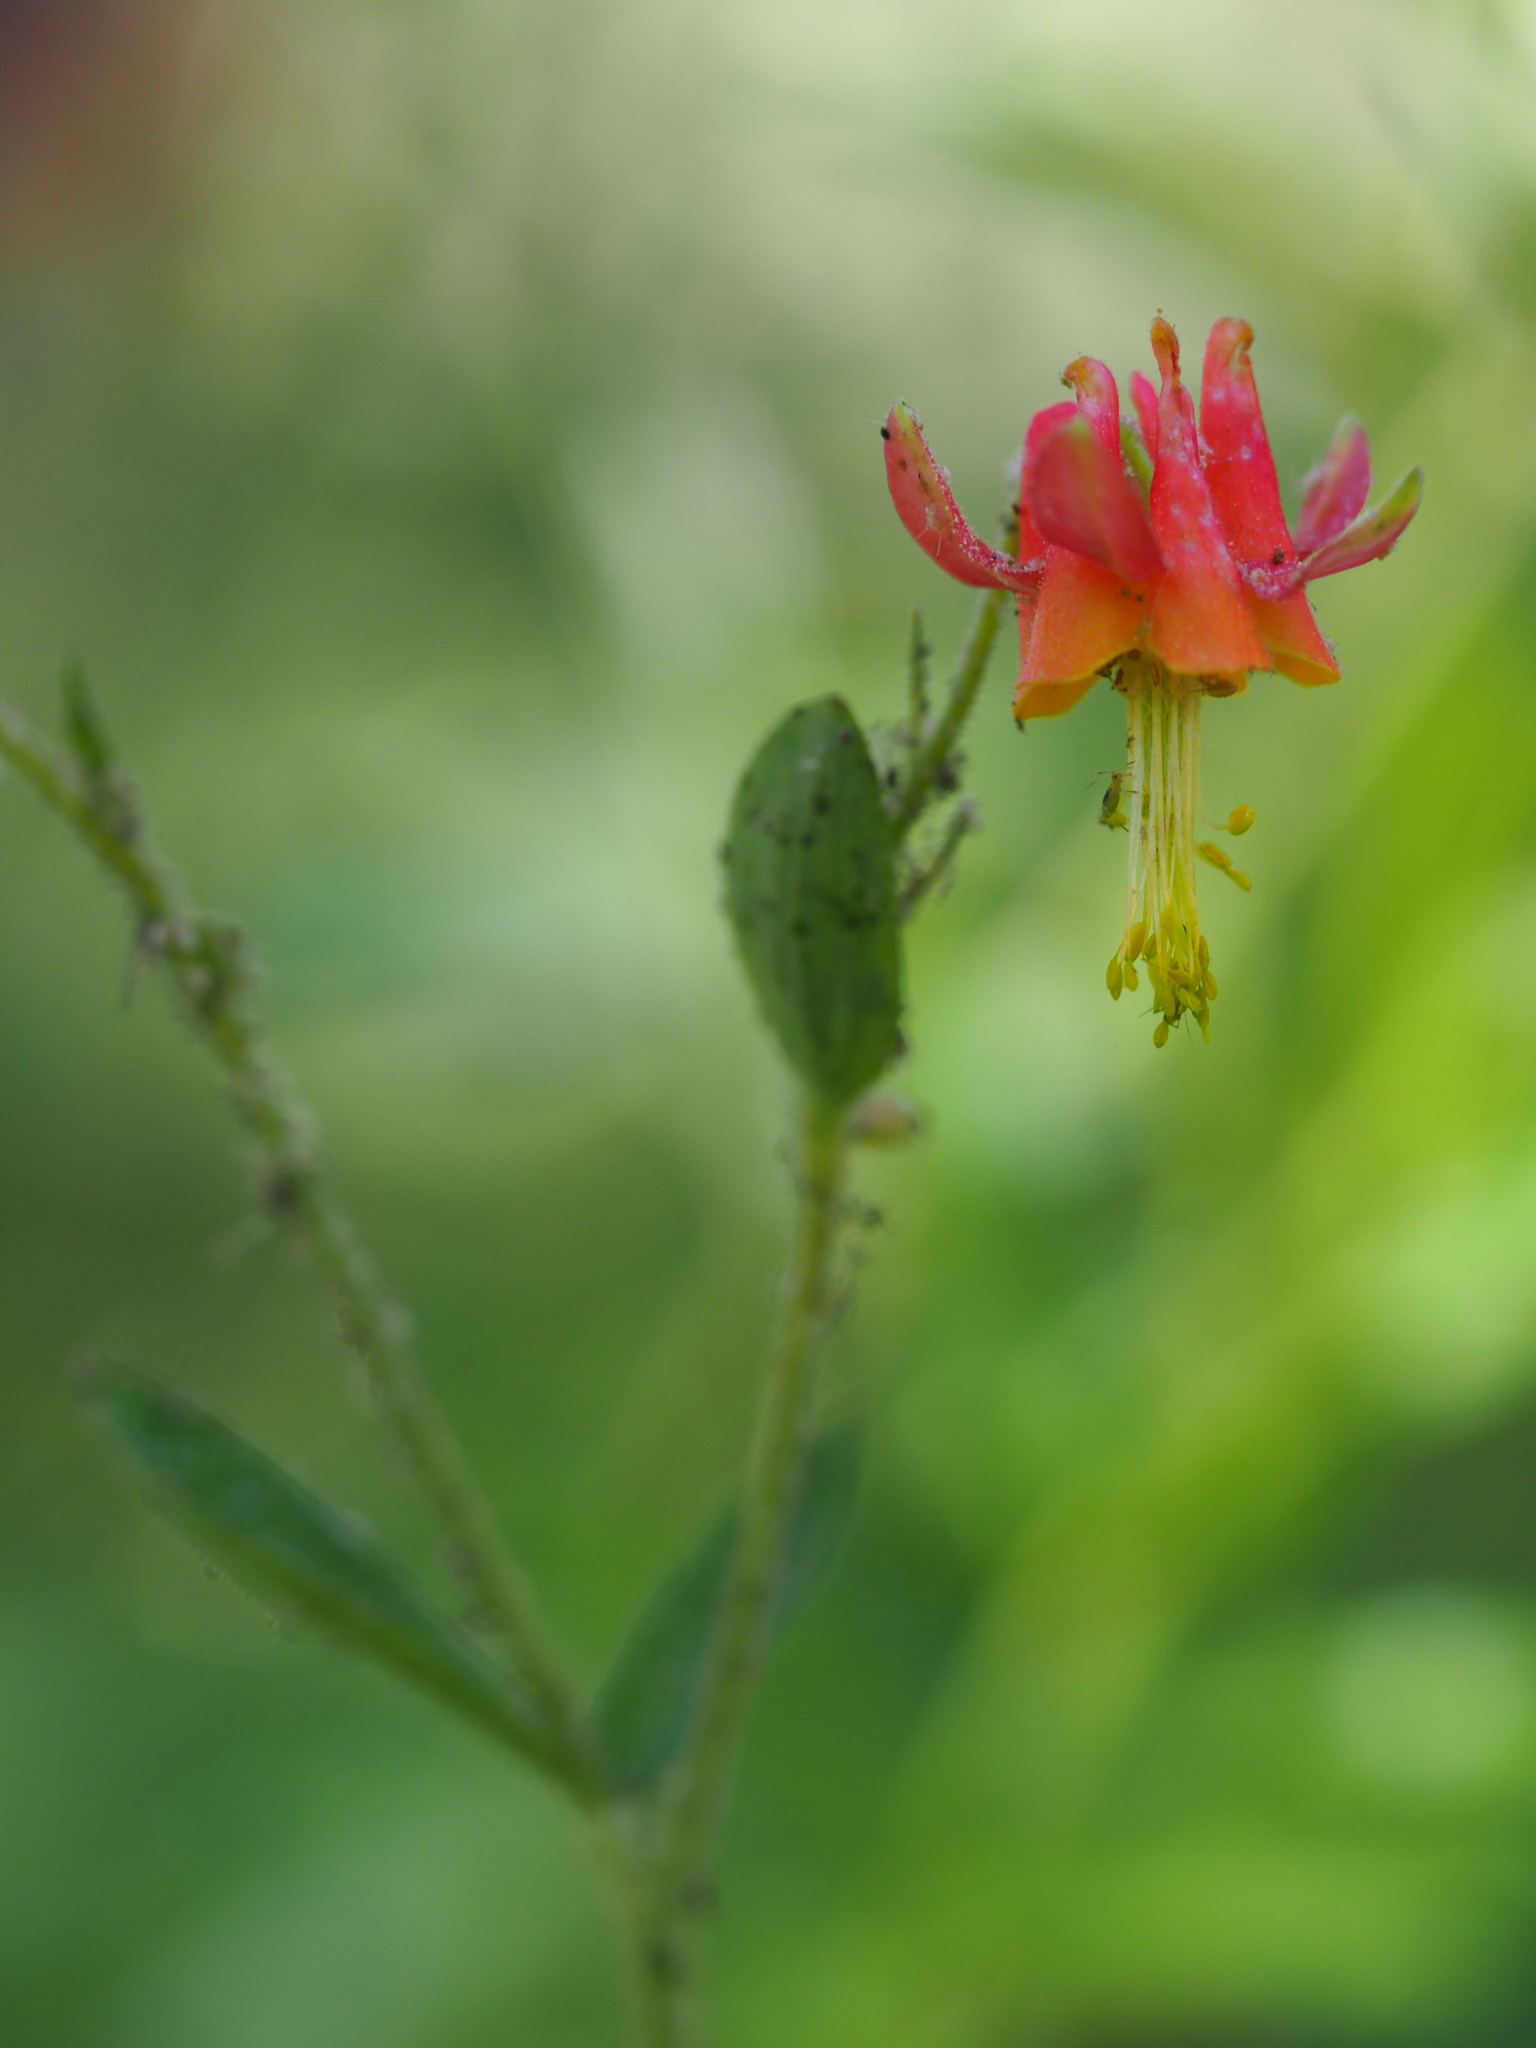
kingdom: Plantae
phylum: Tracheophyta
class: Magnoliopsida
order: Ranunculales
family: Ranunculaceae
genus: Aquilegia
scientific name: Aquilegia formosa
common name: Sitka columbine
